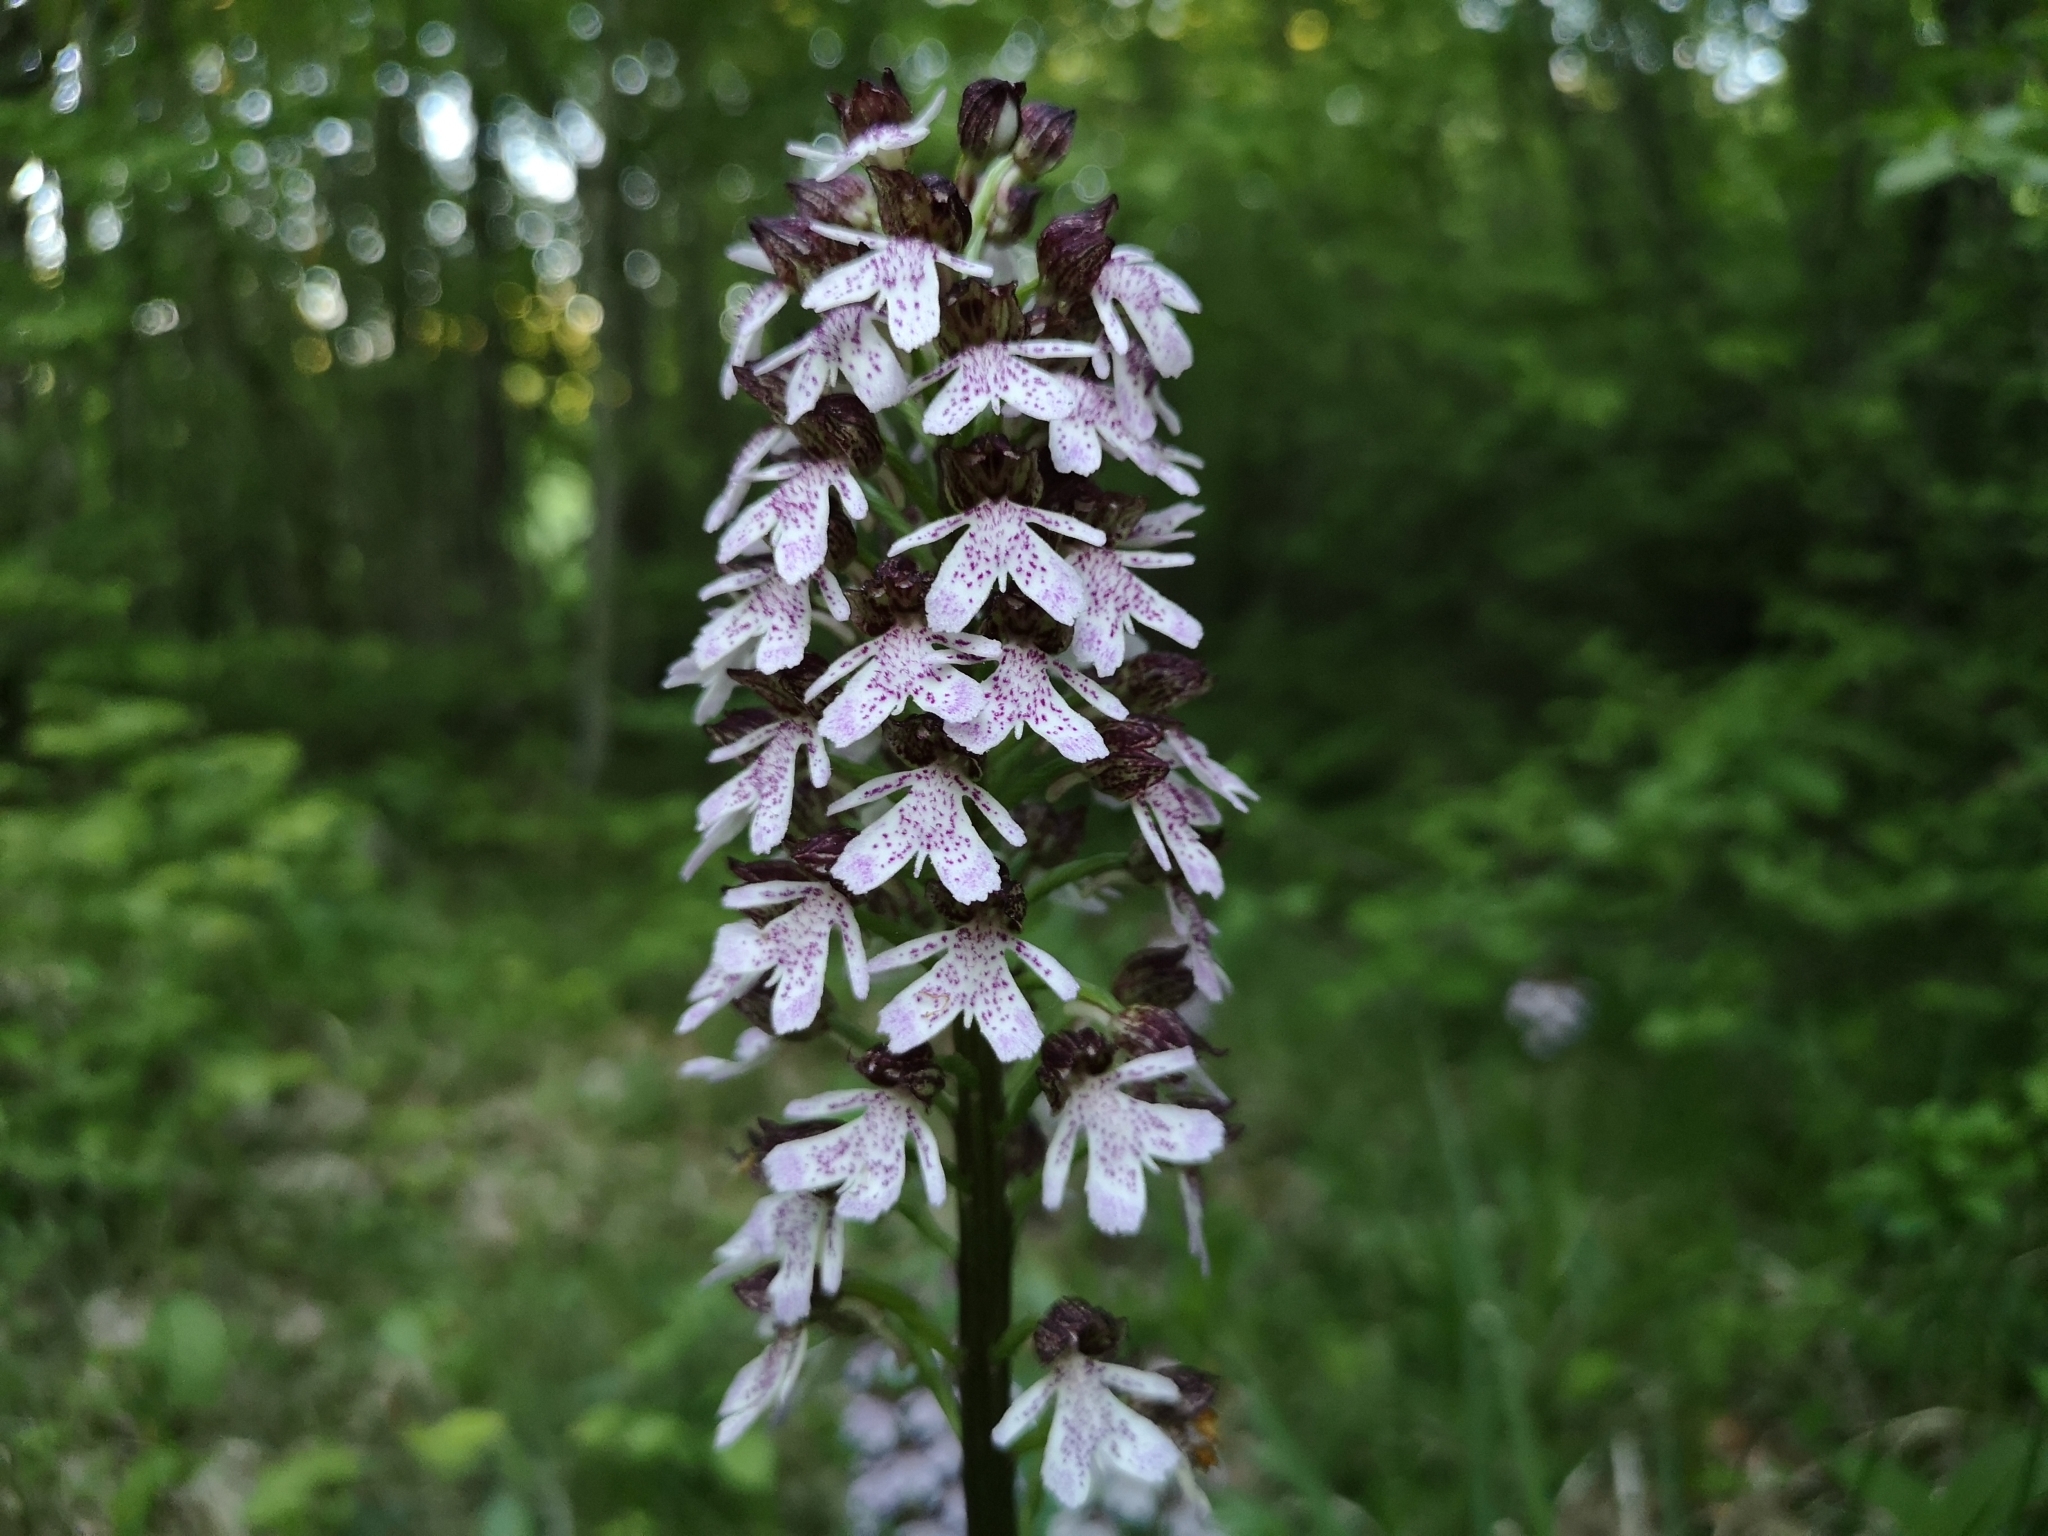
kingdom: Plantae
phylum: Tracheophyta
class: Liliopsida
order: Asparagales
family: Orchidaceae
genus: Orchis
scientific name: Orchis purpurea
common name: Lady orchid
